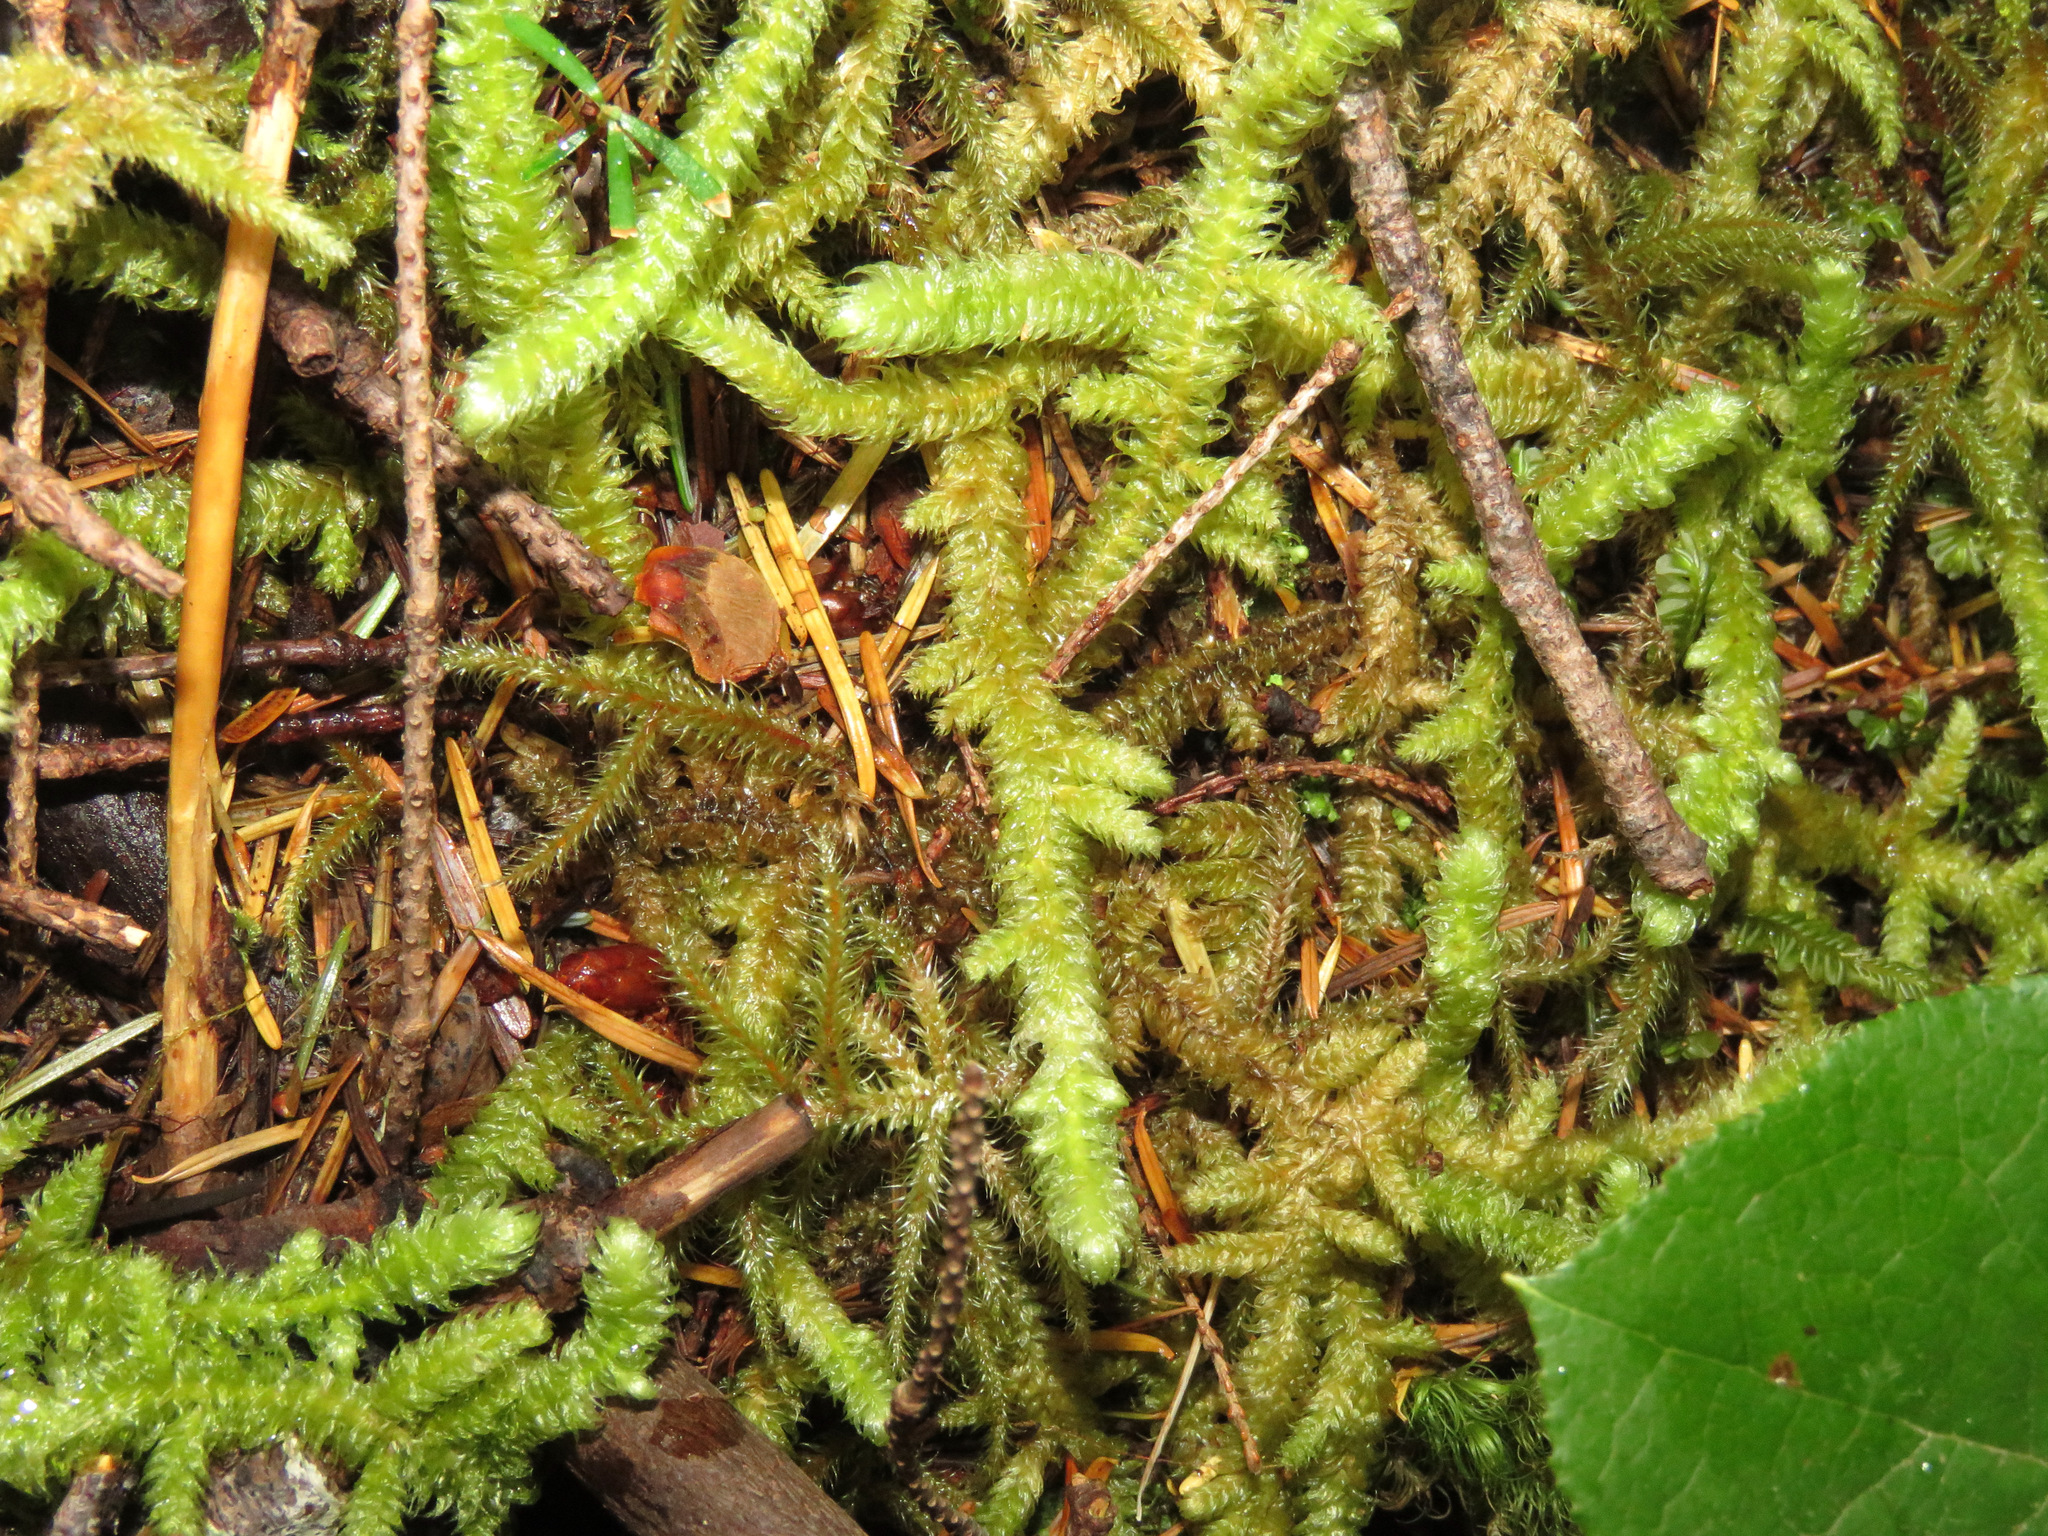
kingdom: Plantae
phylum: Bryophyta
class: Bryopsida
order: Hypnales
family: Hylocomiaceae
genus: Rhytidiopsis
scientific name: Rhytidiopsis robusta
